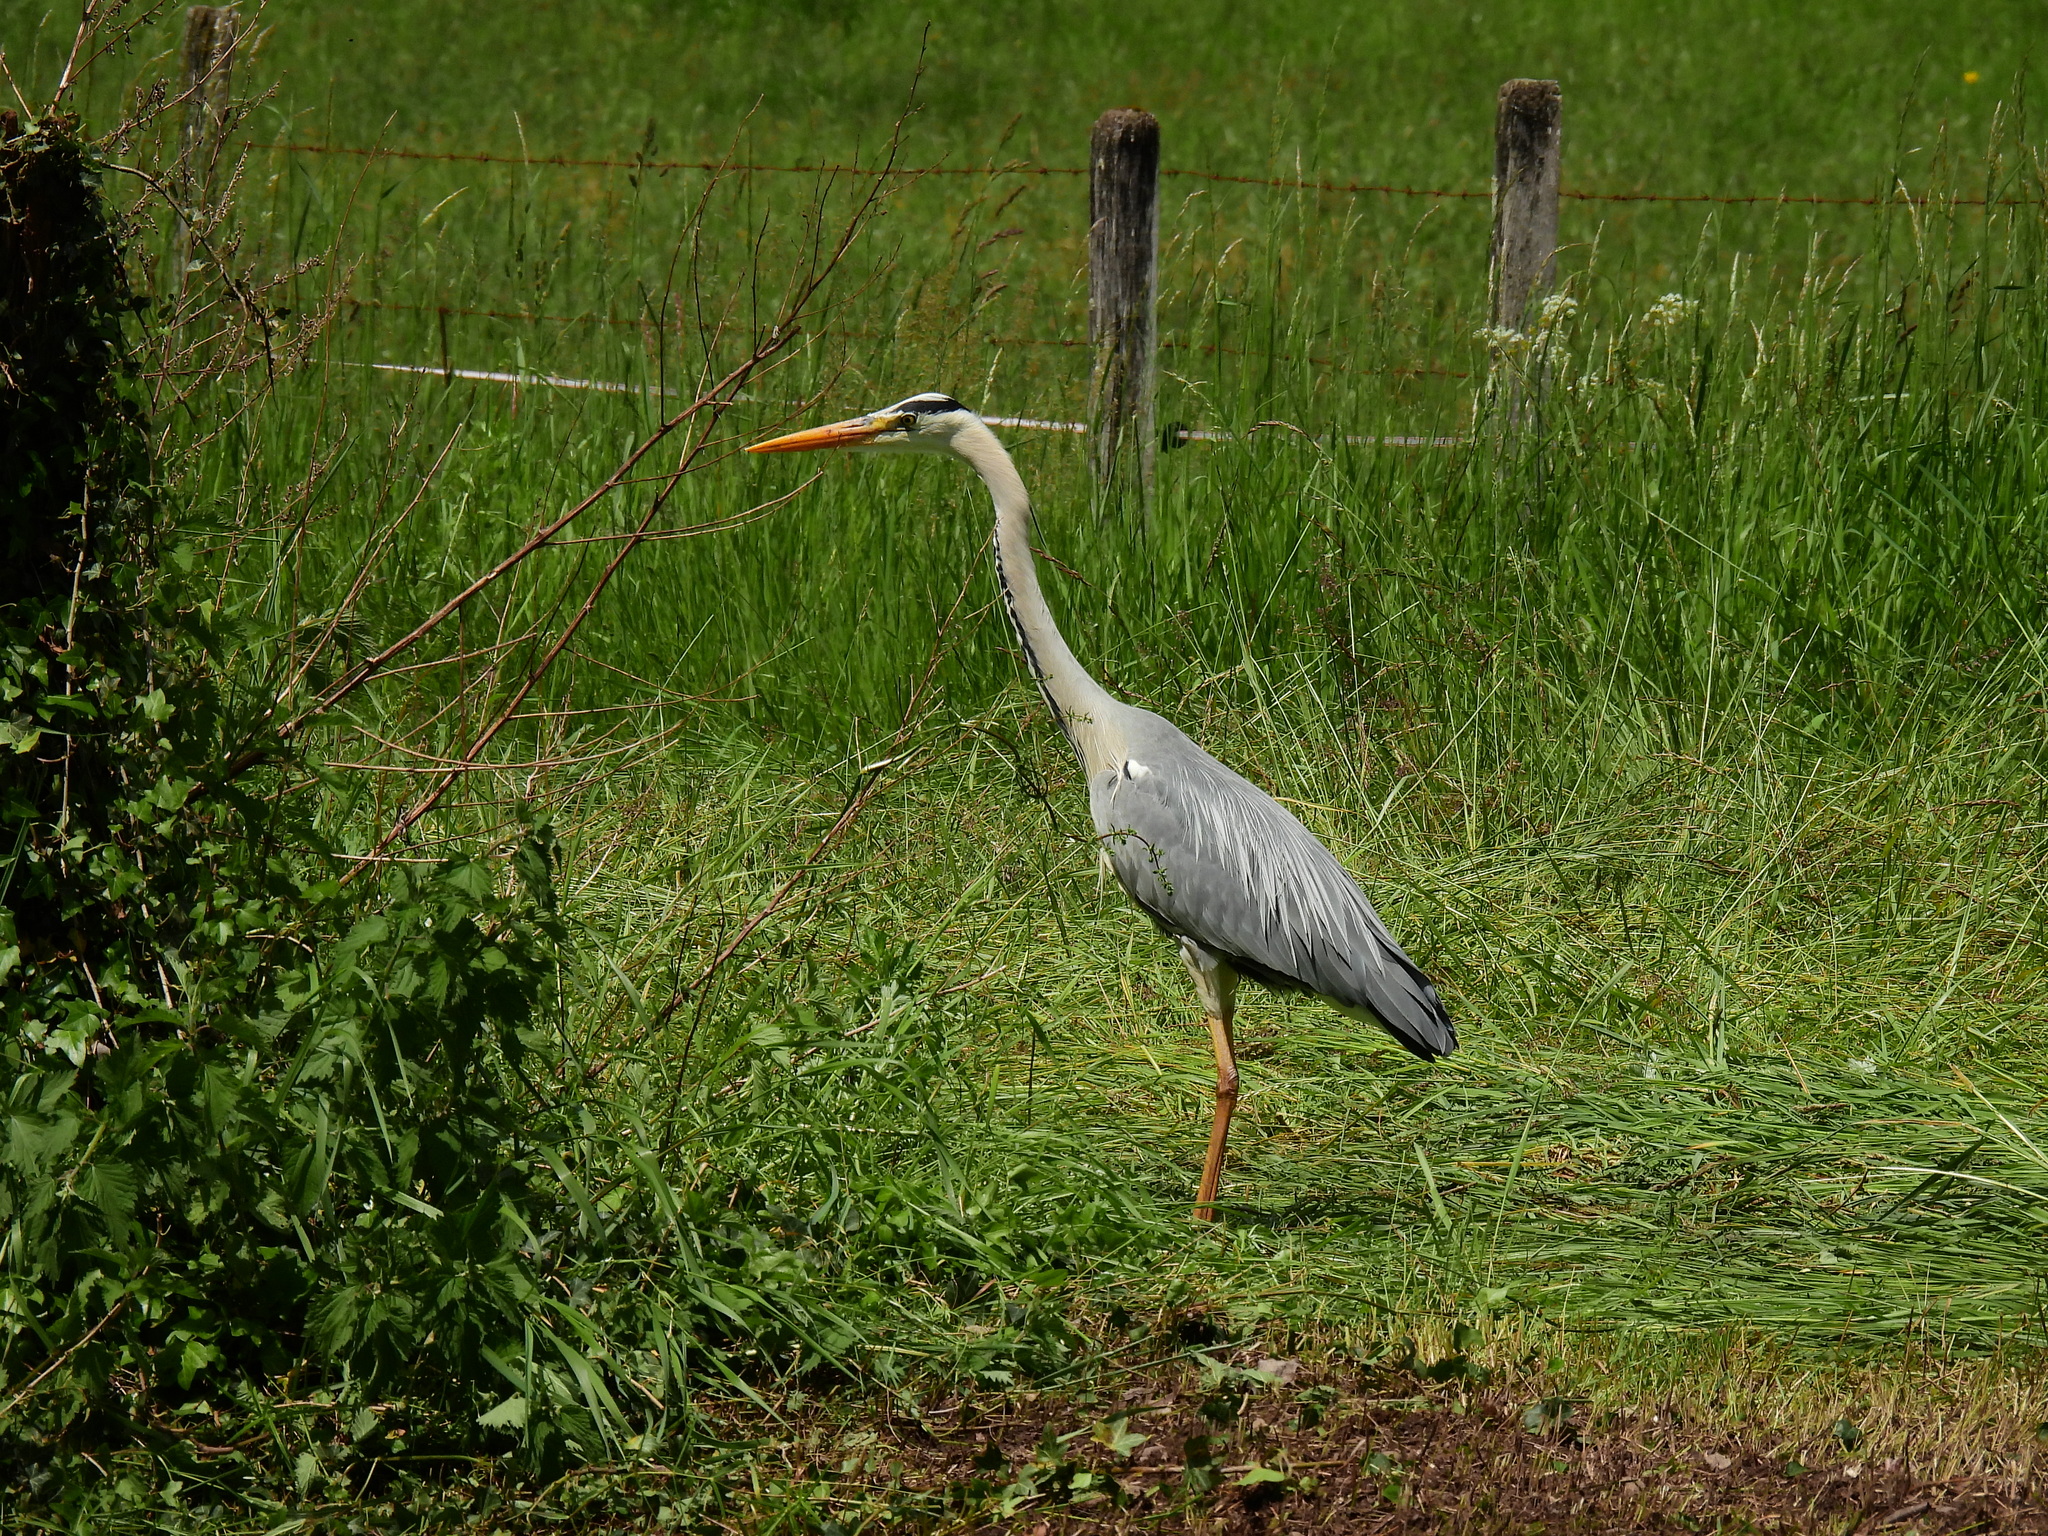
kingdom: Animalia
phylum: Chordata
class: Aves
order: Pelecaniformes
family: Ardeidae
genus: Ardea
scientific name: Ardea cinerea
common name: Grey heron
